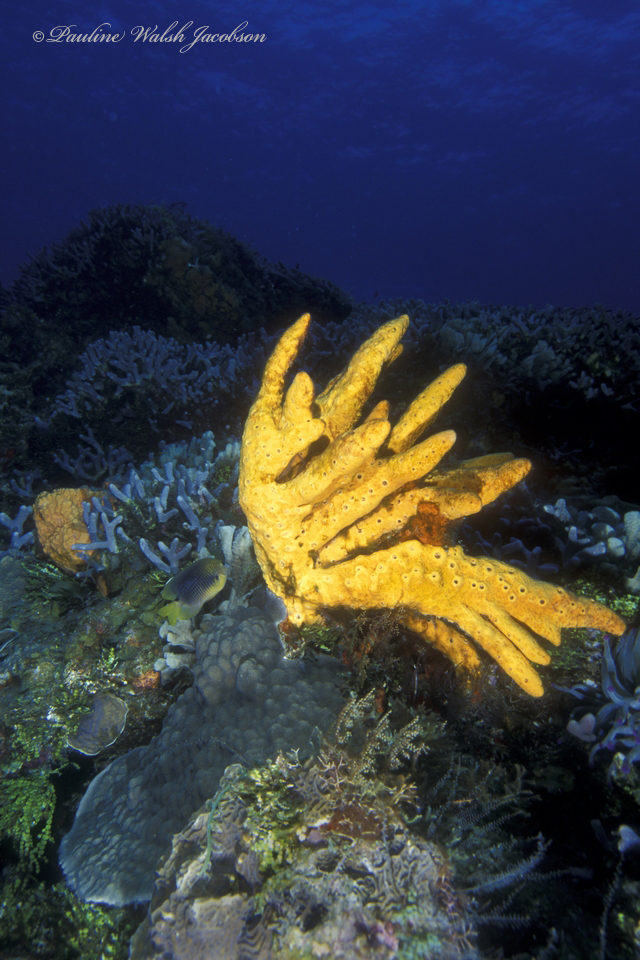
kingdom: Animalia
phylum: Porifera
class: Demospongiae
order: Agelasida
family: Agelasidae
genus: Agelas
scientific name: Agelas sceptrum
